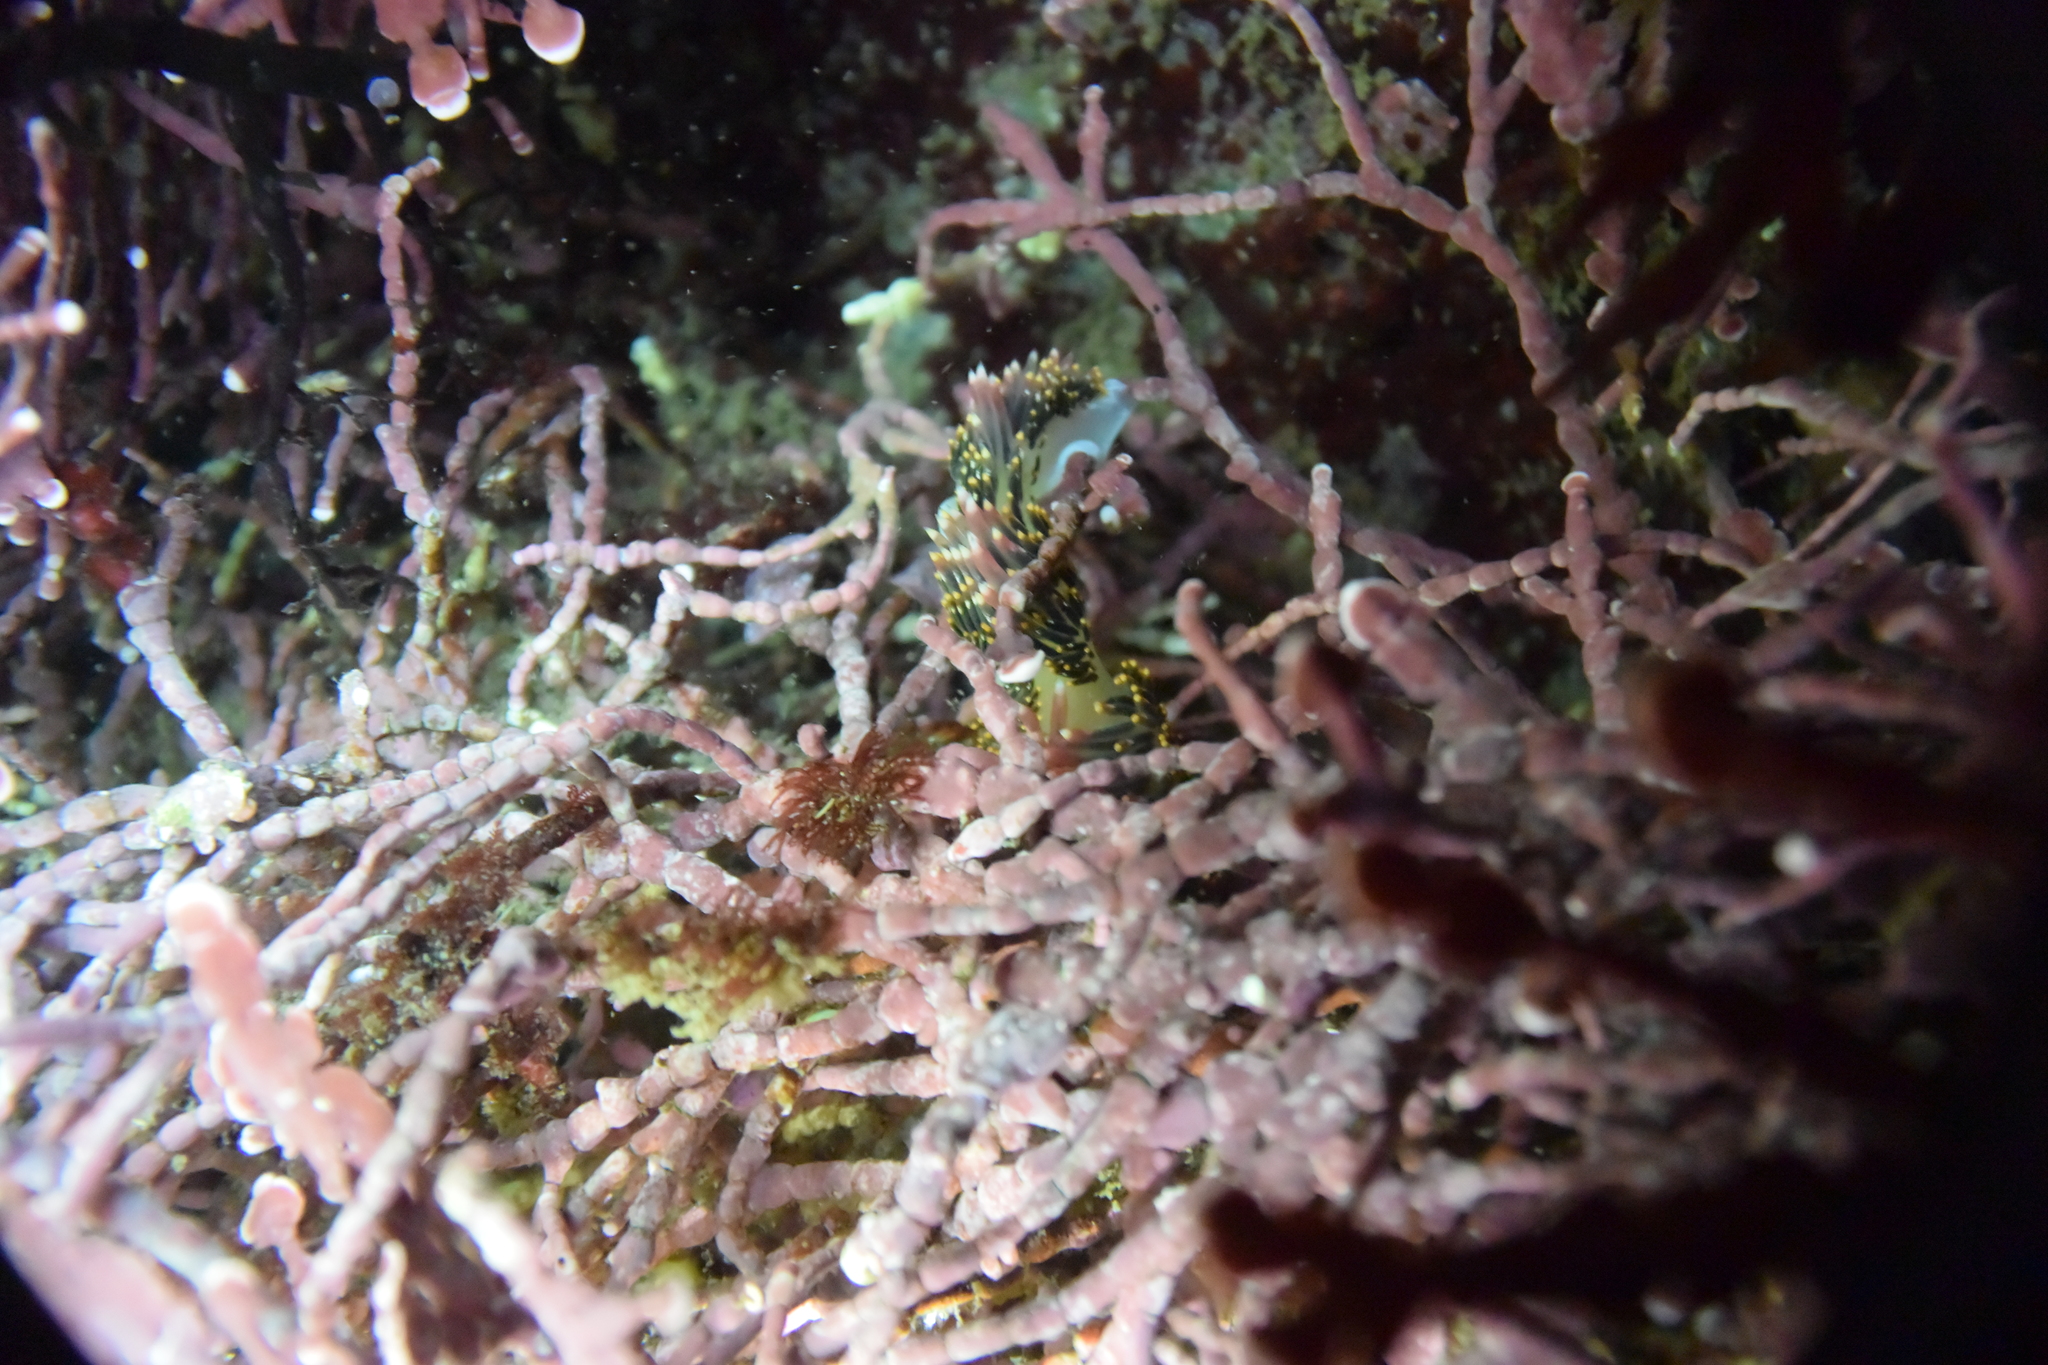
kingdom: Animalia
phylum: Mollusca
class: Gastropoda
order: Nudibranchia
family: Facelinidae
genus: Phidiana
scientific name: Phidiana hiltoni
